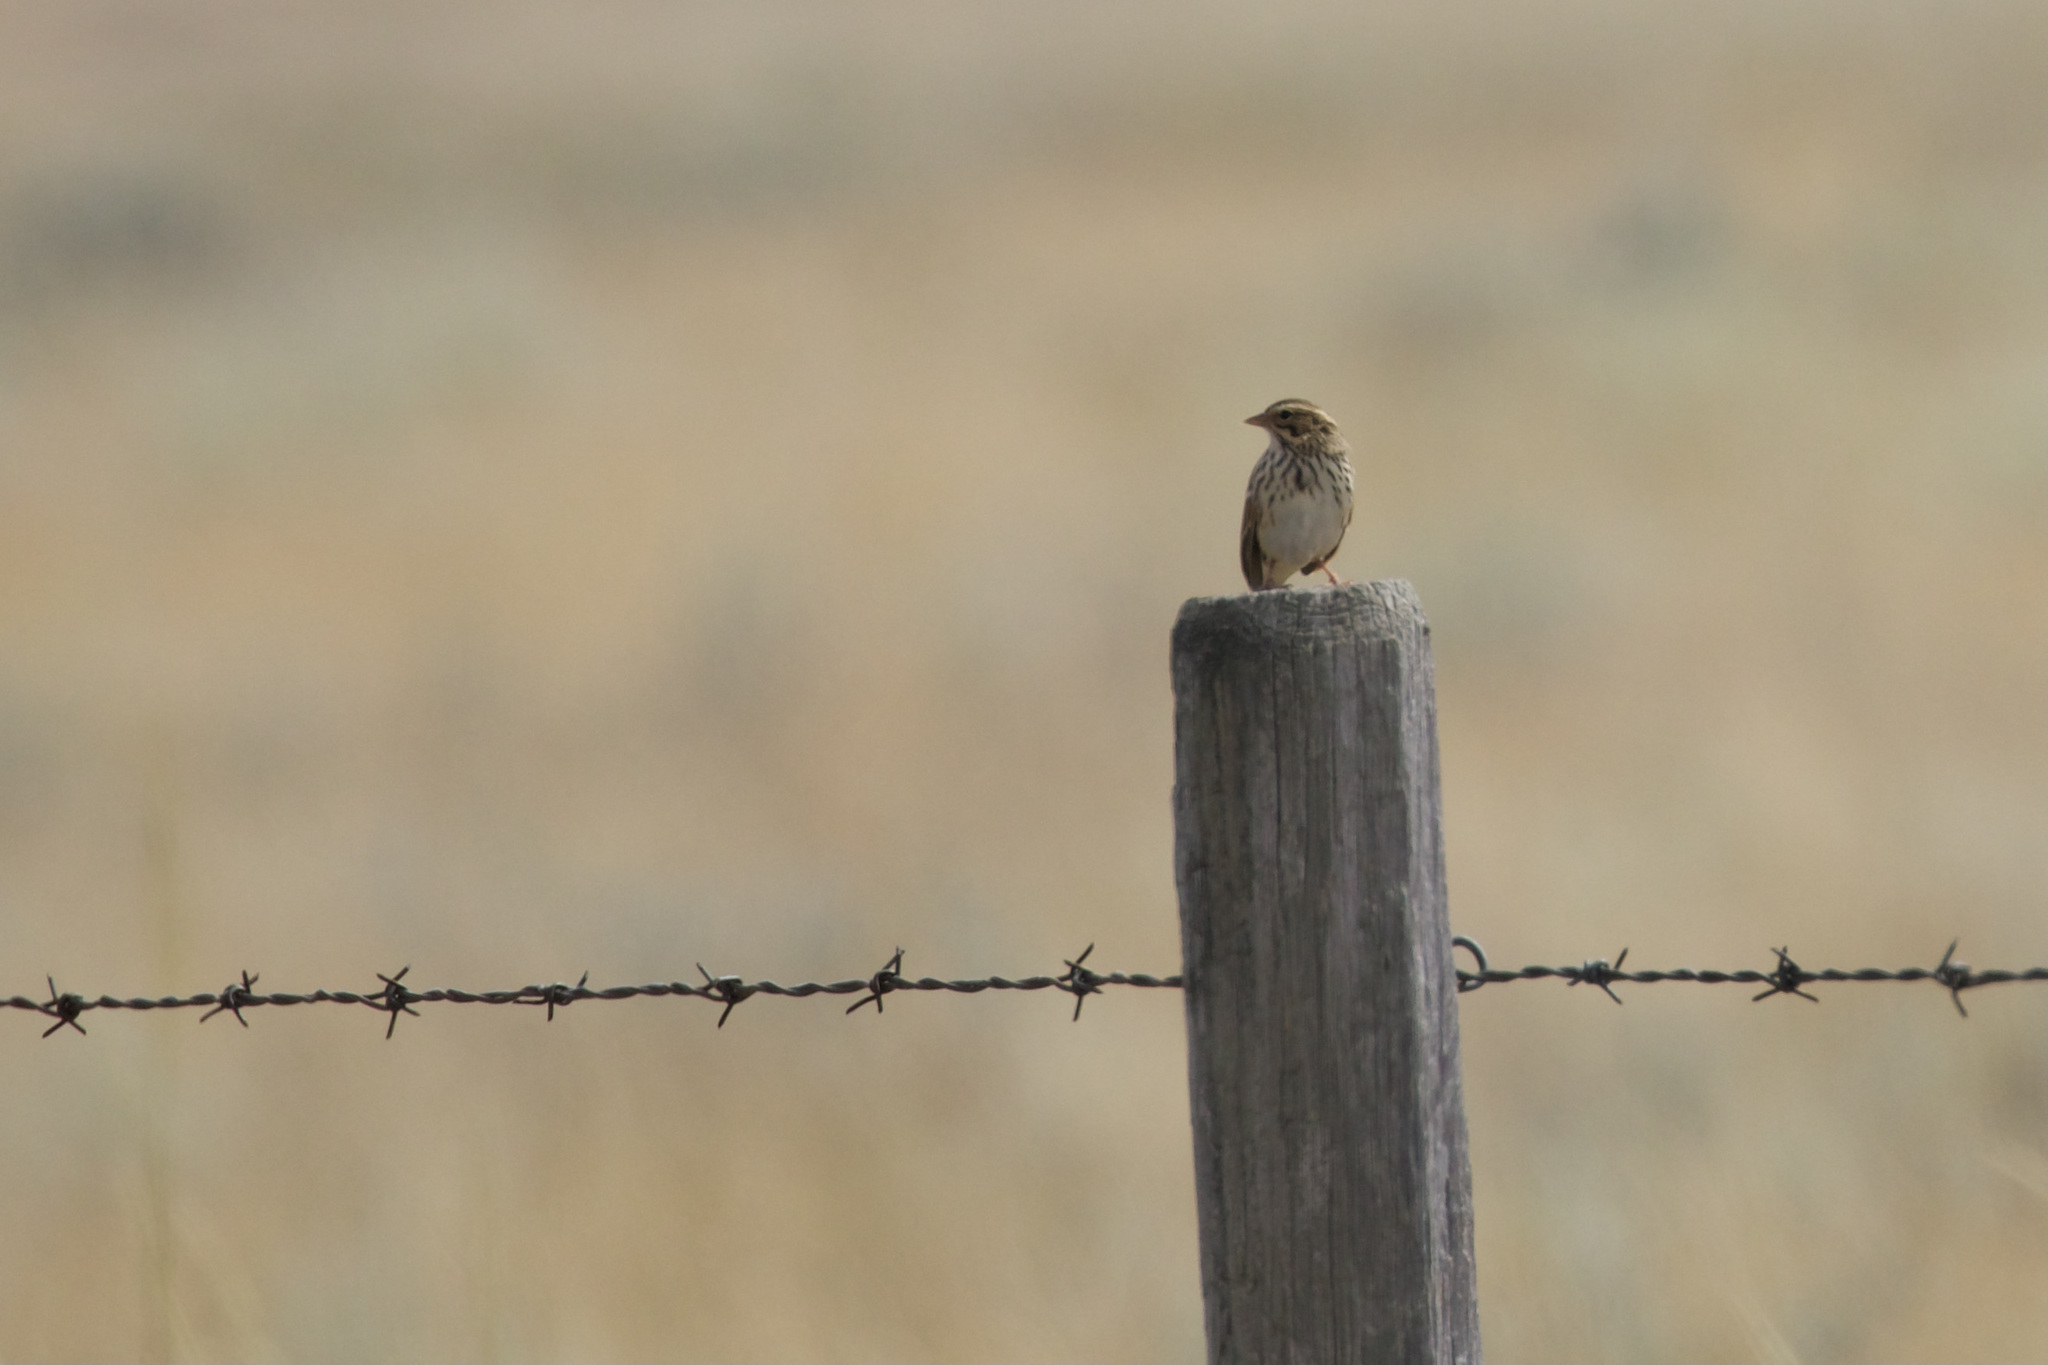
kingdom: Animalia
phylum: Chordata
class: Aves
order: Passeriformes
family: Passerellidae
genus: Passerculus
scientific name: Passerculus sandwichensis
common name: Savannah sparrow
